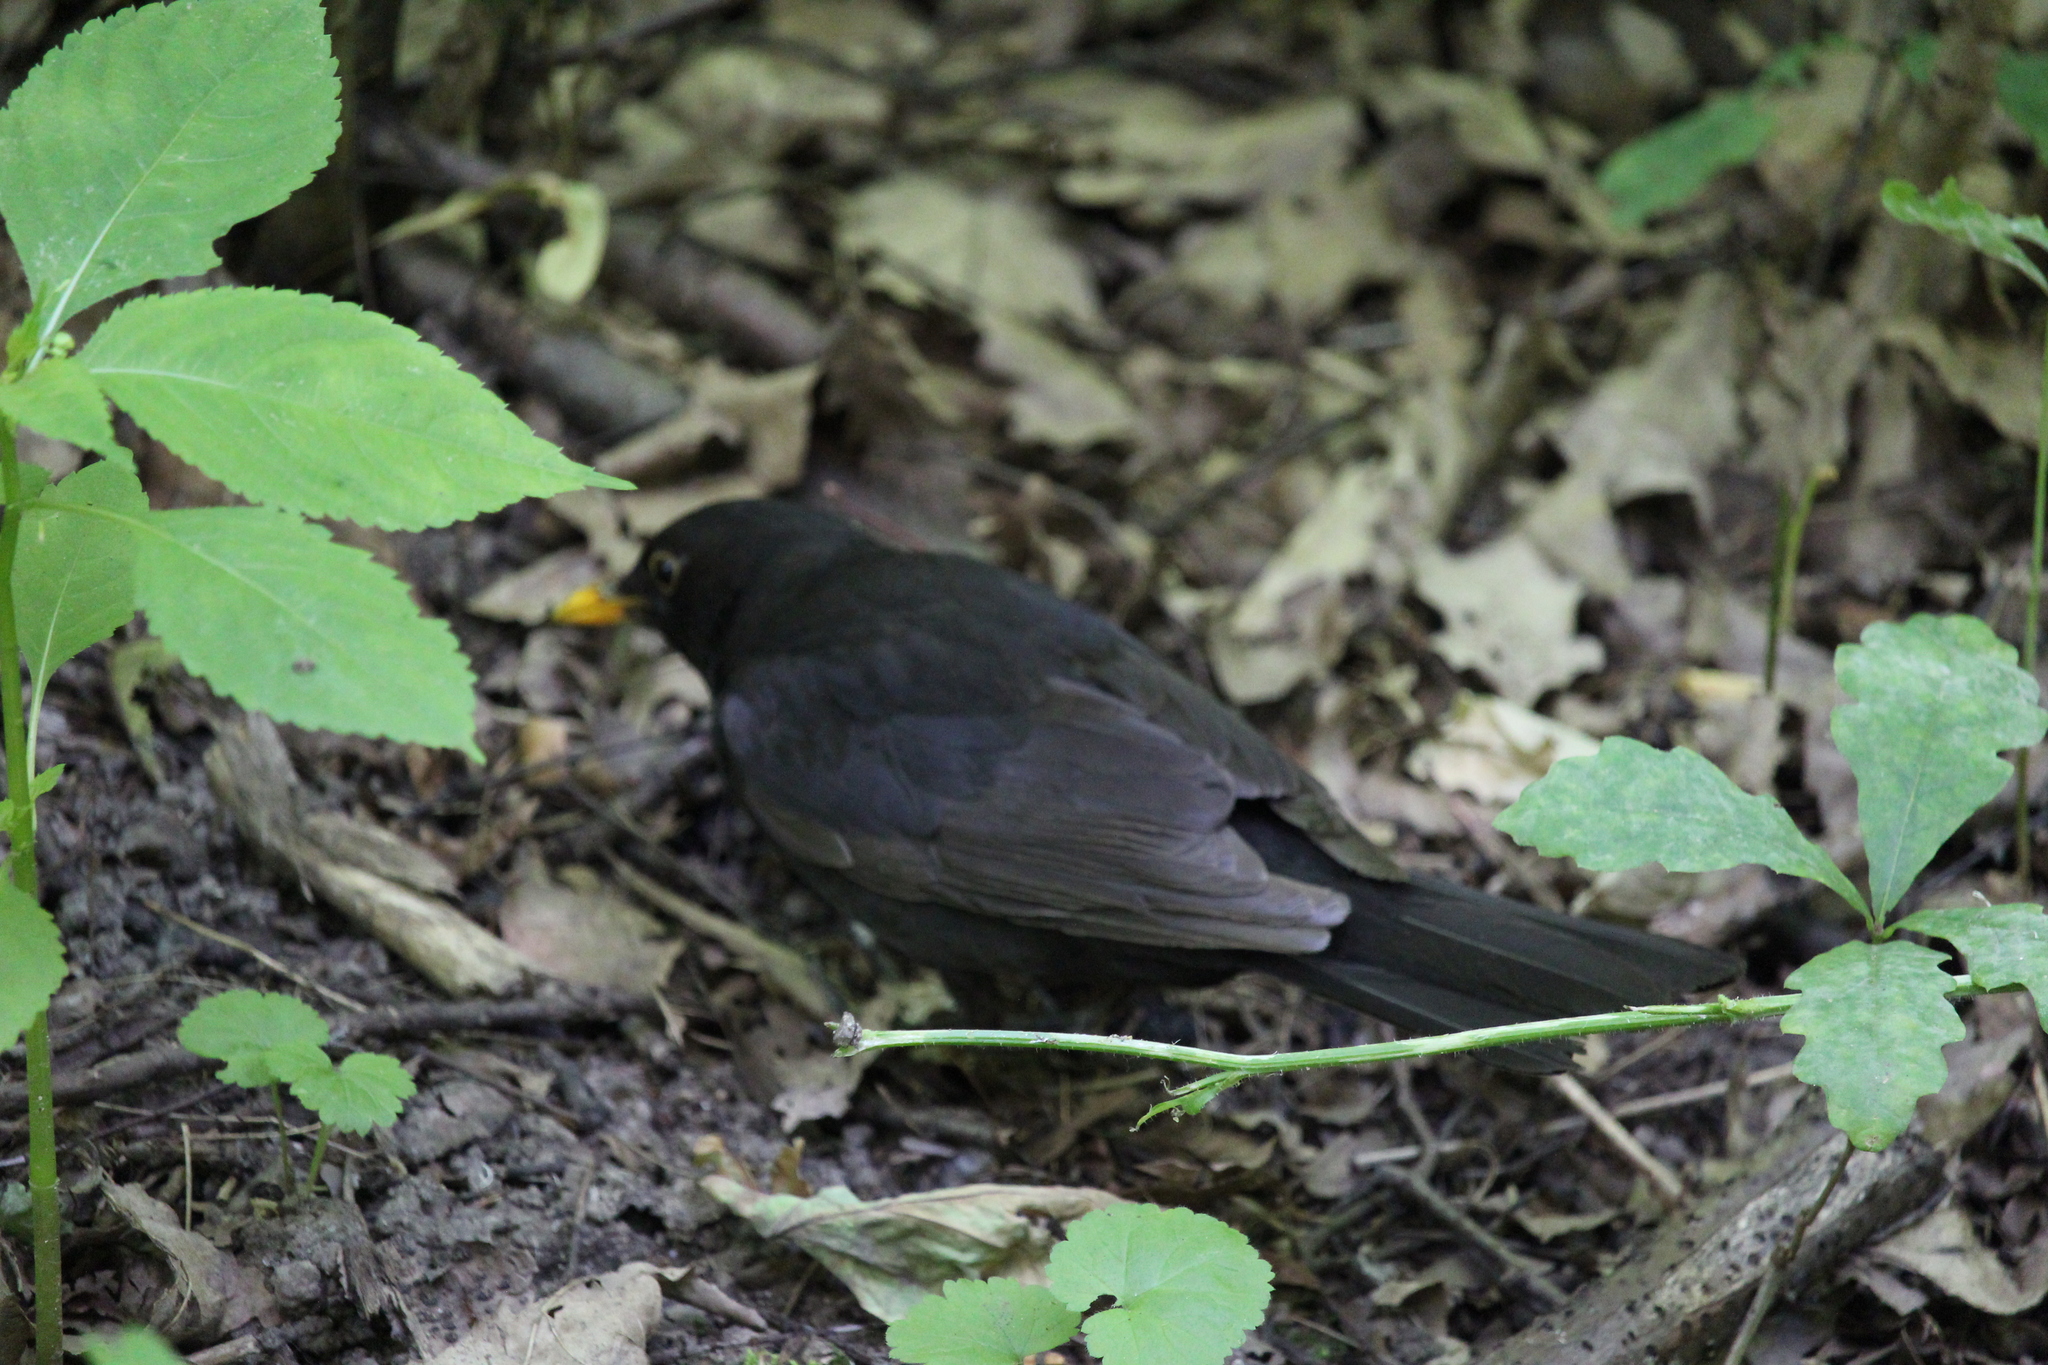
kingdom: Animalia
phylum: Chordata
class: Aves
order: Passeriformes
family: Turdidae
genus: Turdus
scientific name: Turdus merula
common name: Common blackbird
